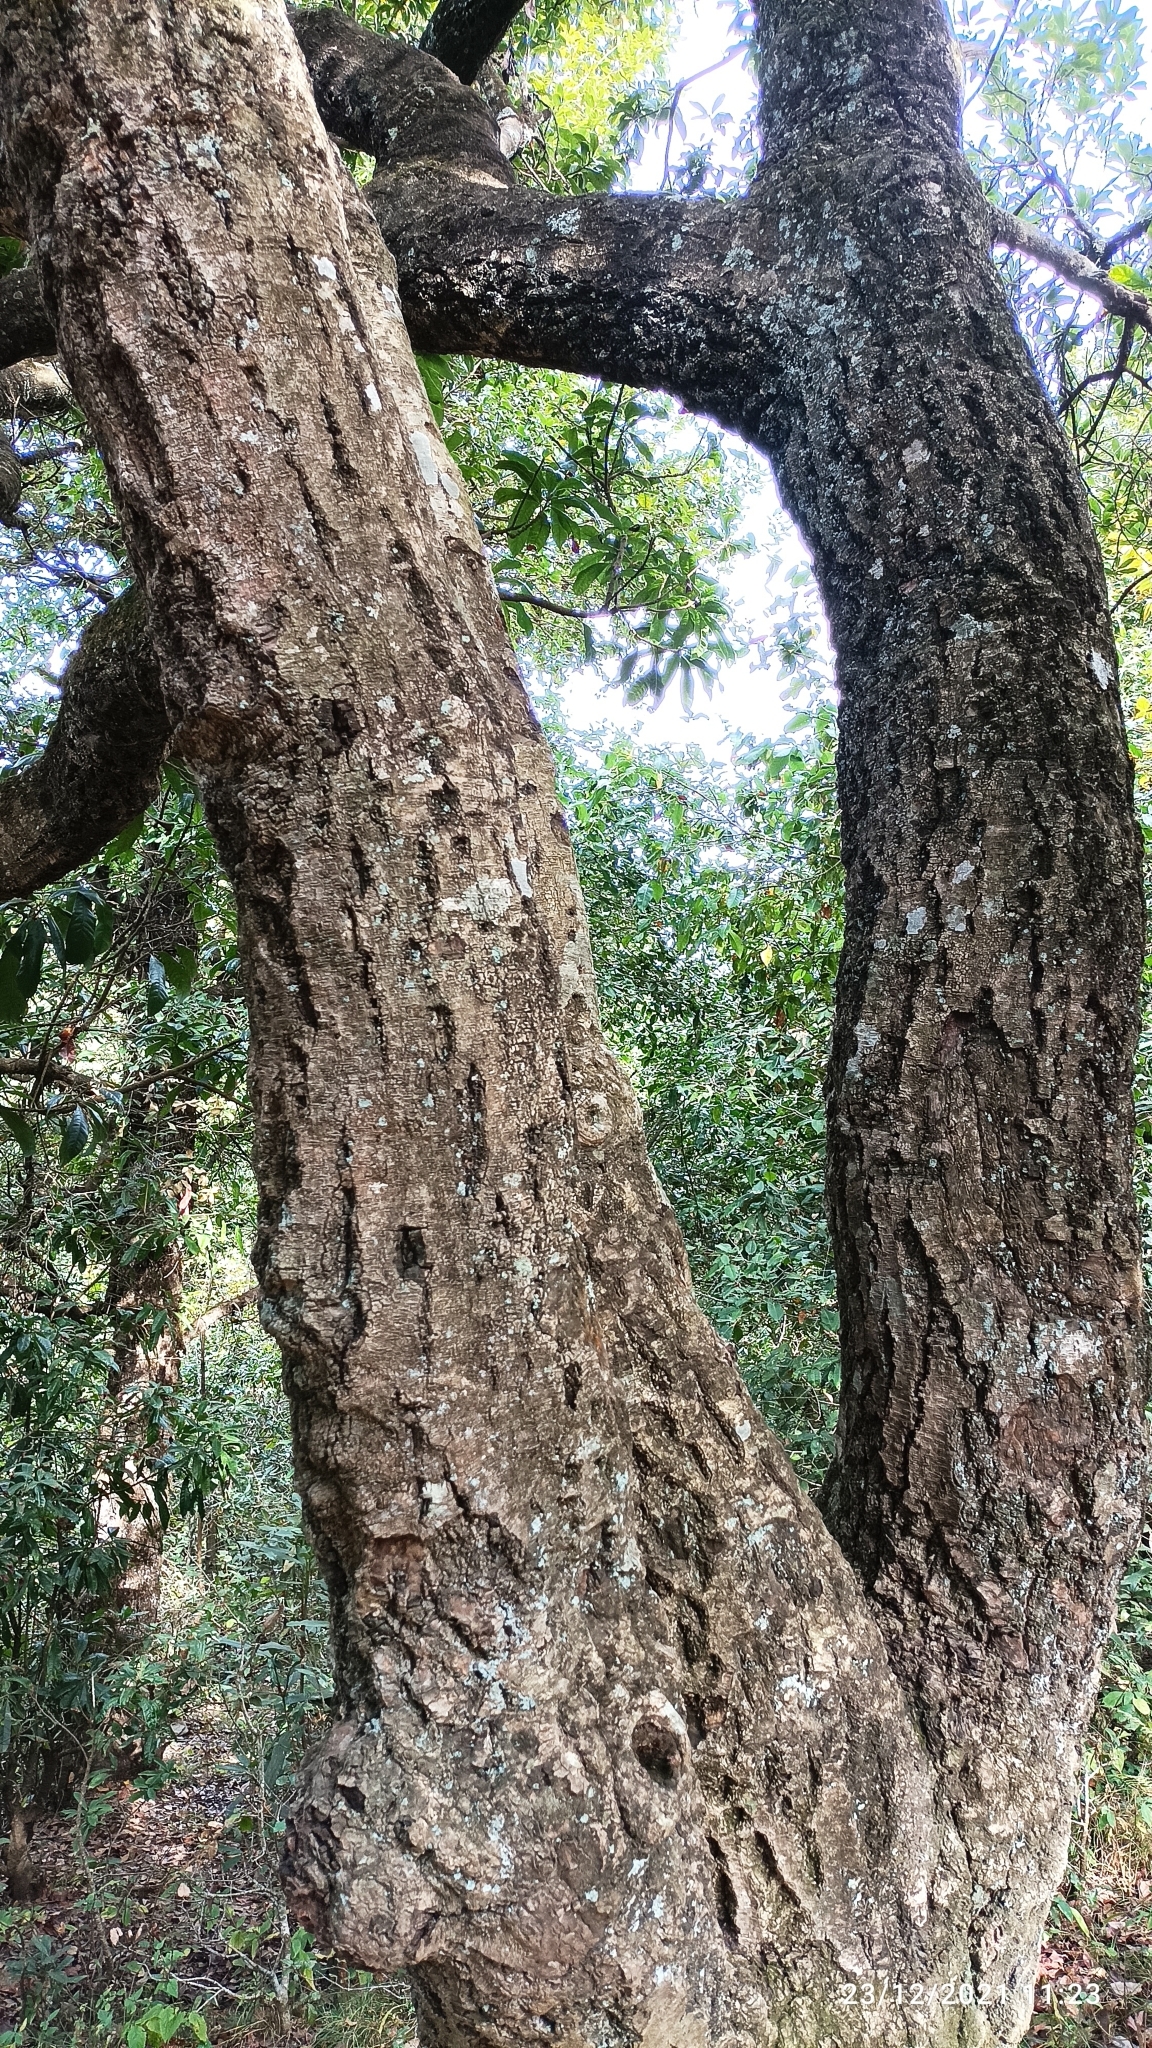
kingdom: Plantae
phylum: Tracheophyta
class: Magnoliopsida
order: Fagales
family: Myricaceae
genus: Morella
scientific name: Morella esculenta
